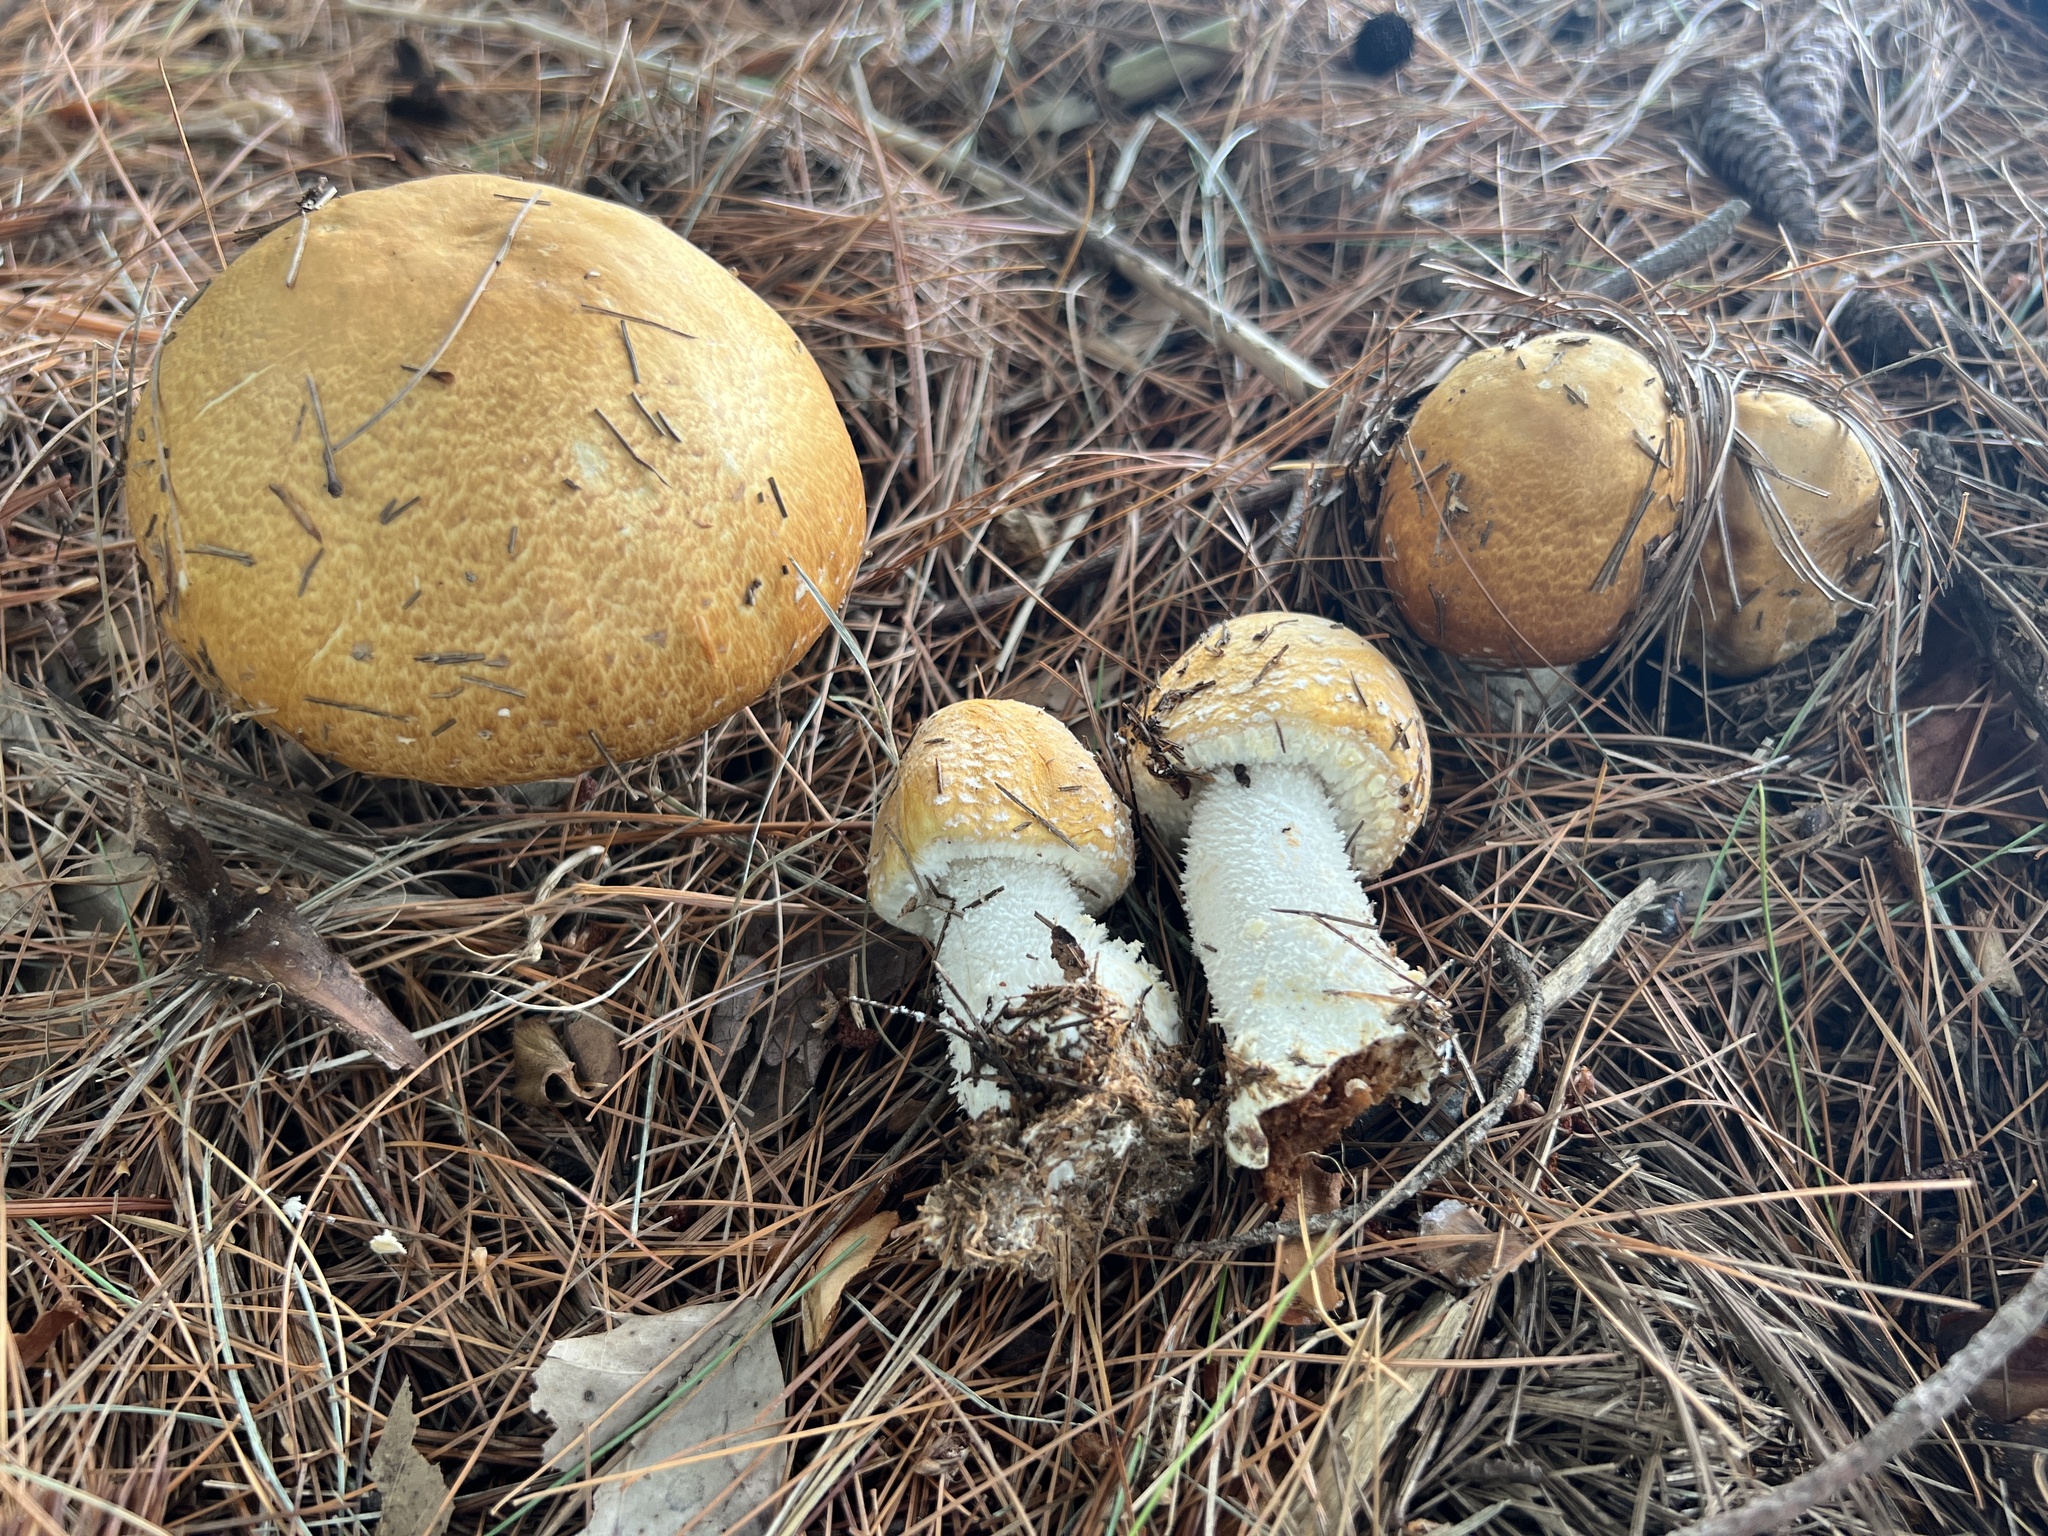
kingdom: Fungi
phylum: Basidiomycota
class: Agaricomycetes
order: Agaricales
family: Agaricaceae
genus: Agaricus
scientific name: Agaricus nanaugustus
